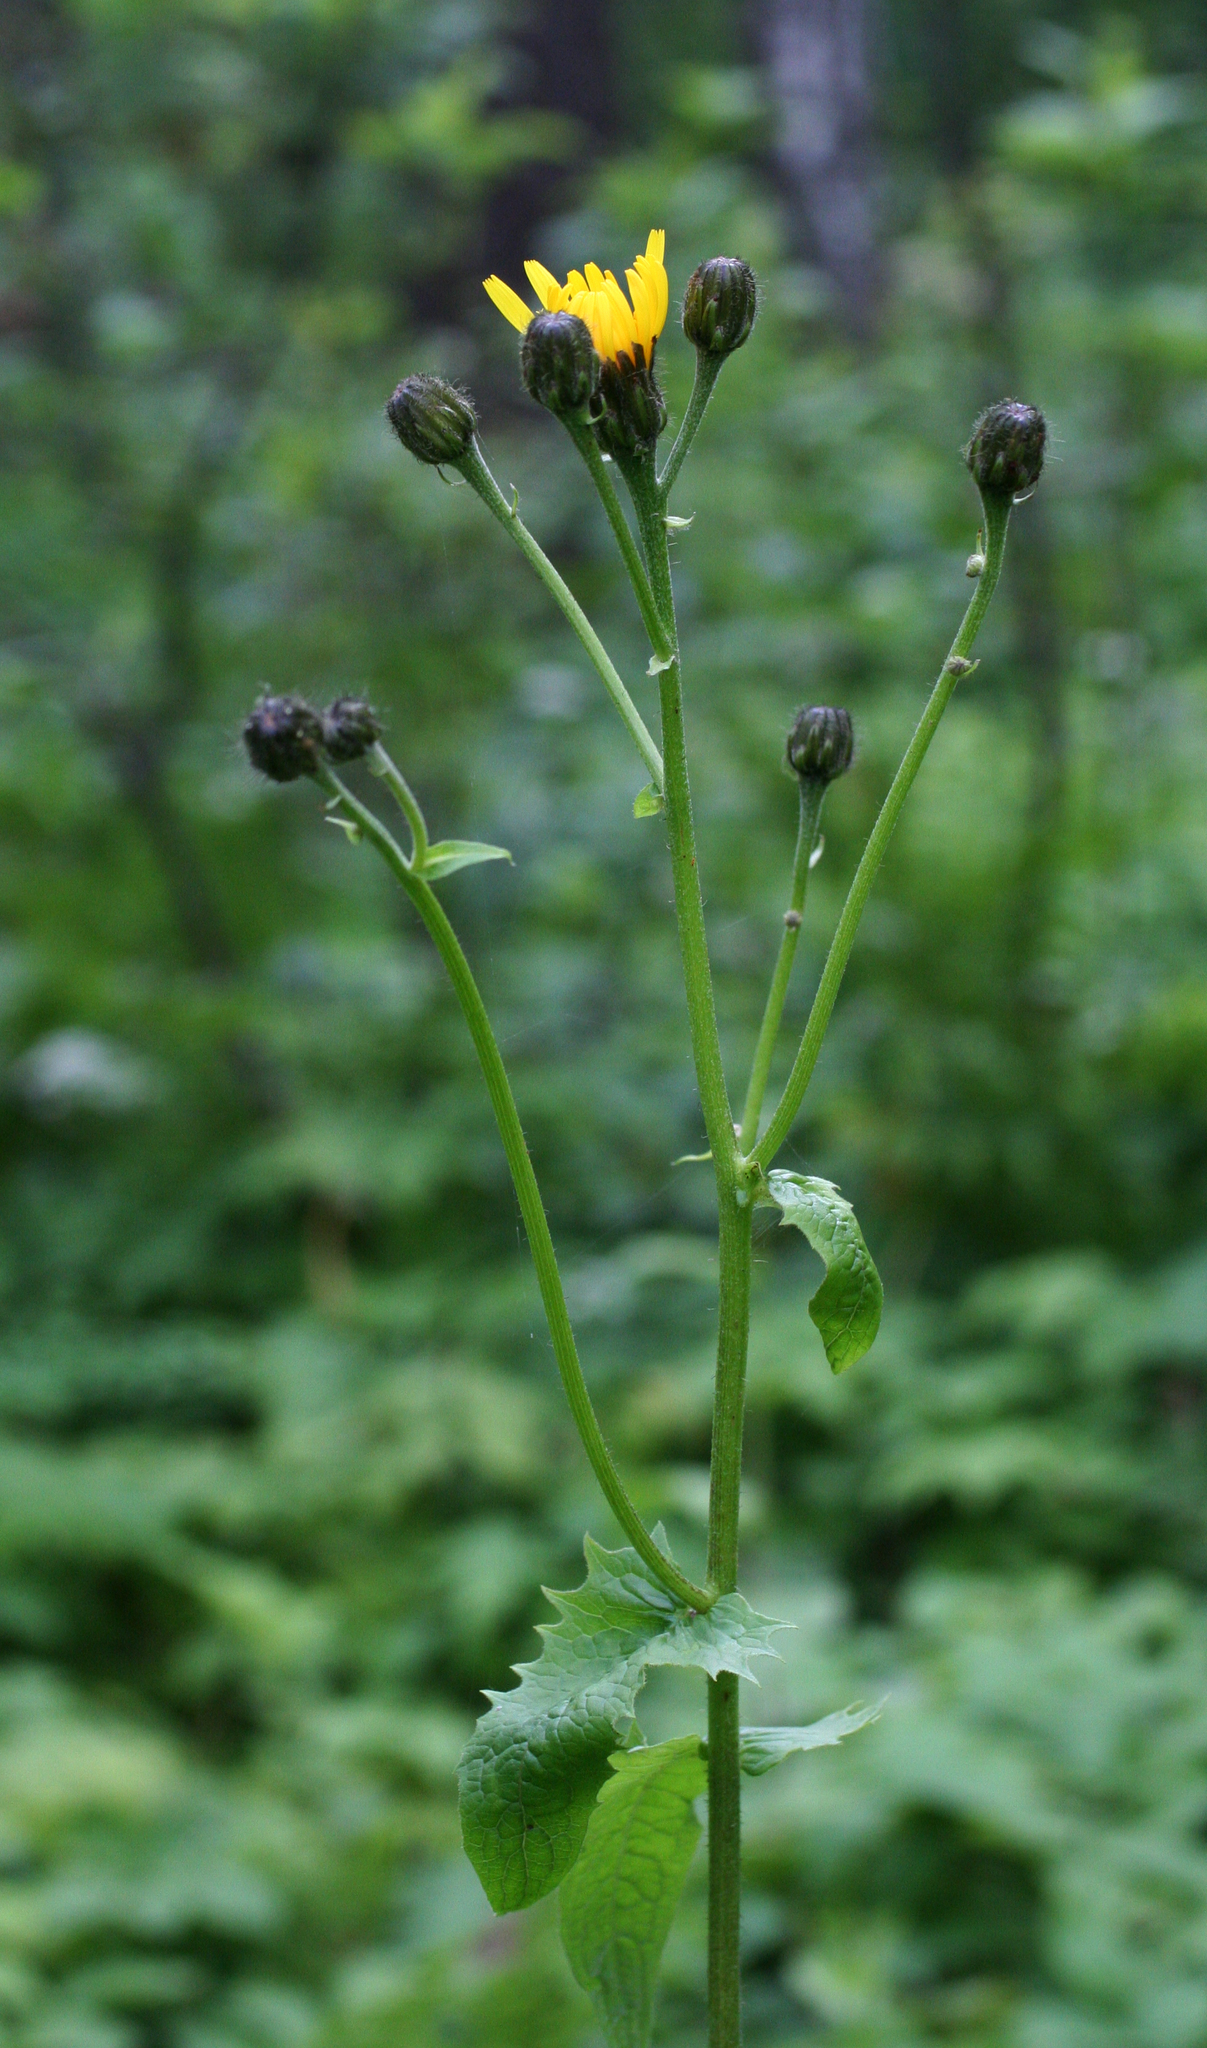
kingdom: Plantae
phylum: Tracheophyta
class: Magnoliopsida
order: Asterales
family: Asteraceae
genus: Crepis
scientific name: Crepis sibirica
